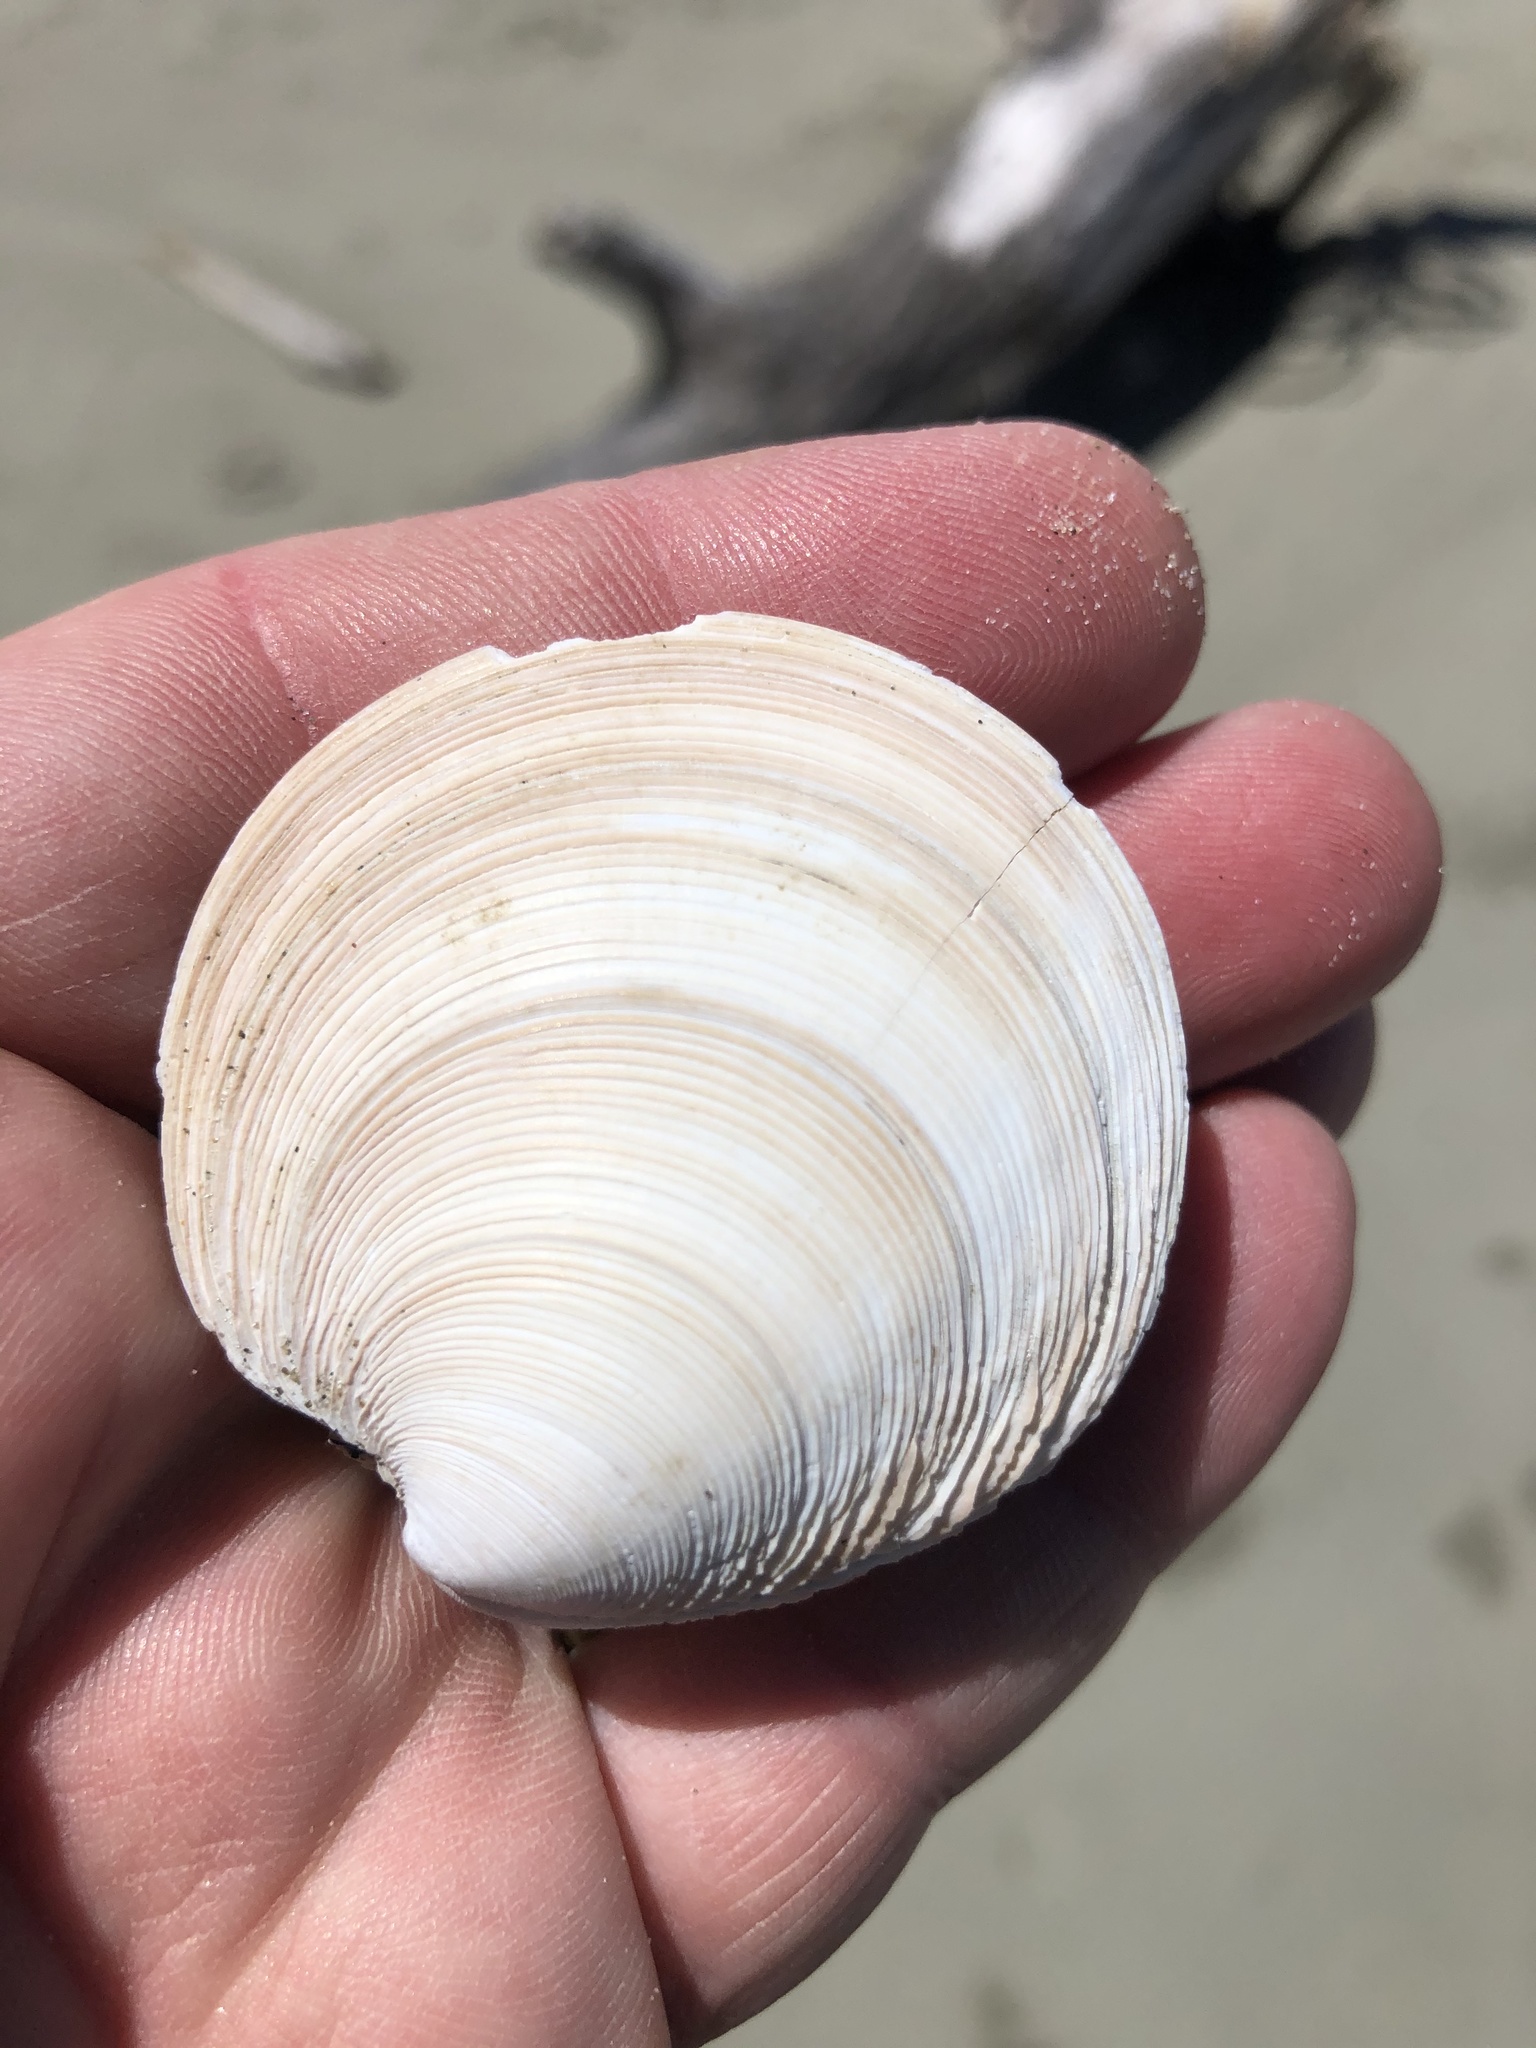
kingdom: Animalia
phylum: Mollusca
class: Bivalvia
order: Venerida
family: Veneridae
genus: Dosinia
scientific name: Dosinia anus
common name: Old-woman dosinia
